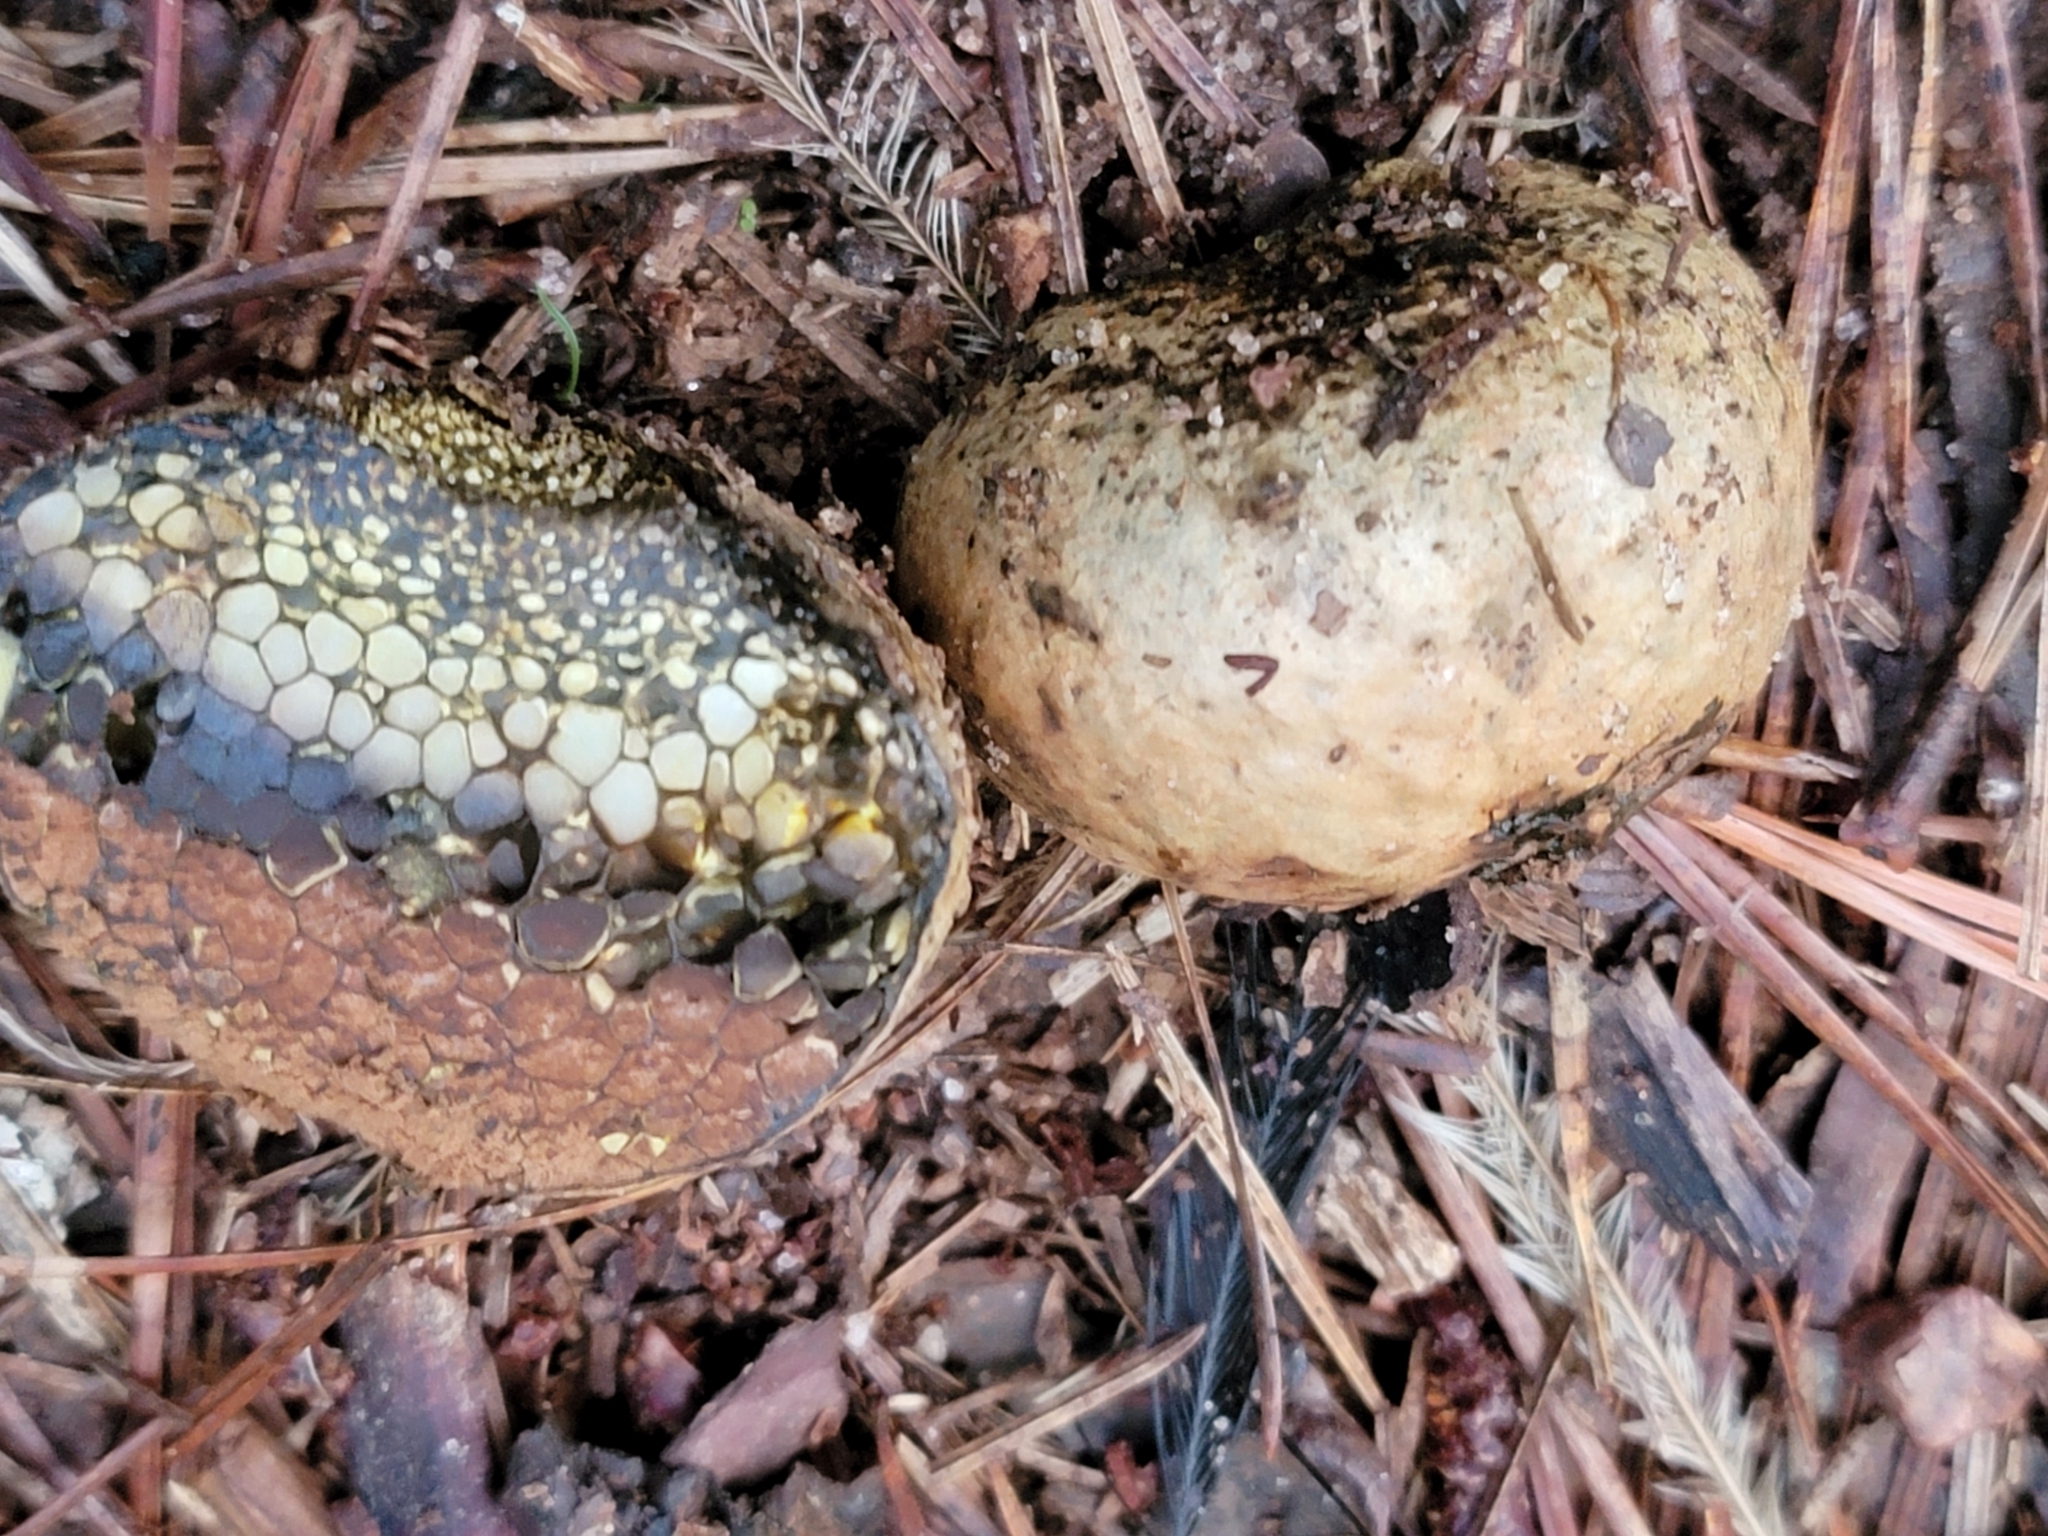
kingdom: Fungi
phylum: Basidiomycota
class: Agaricomycetes
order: Boletales
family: Sclerodermataceae
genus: Pisolithus
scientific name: Pisolithus arenarius
